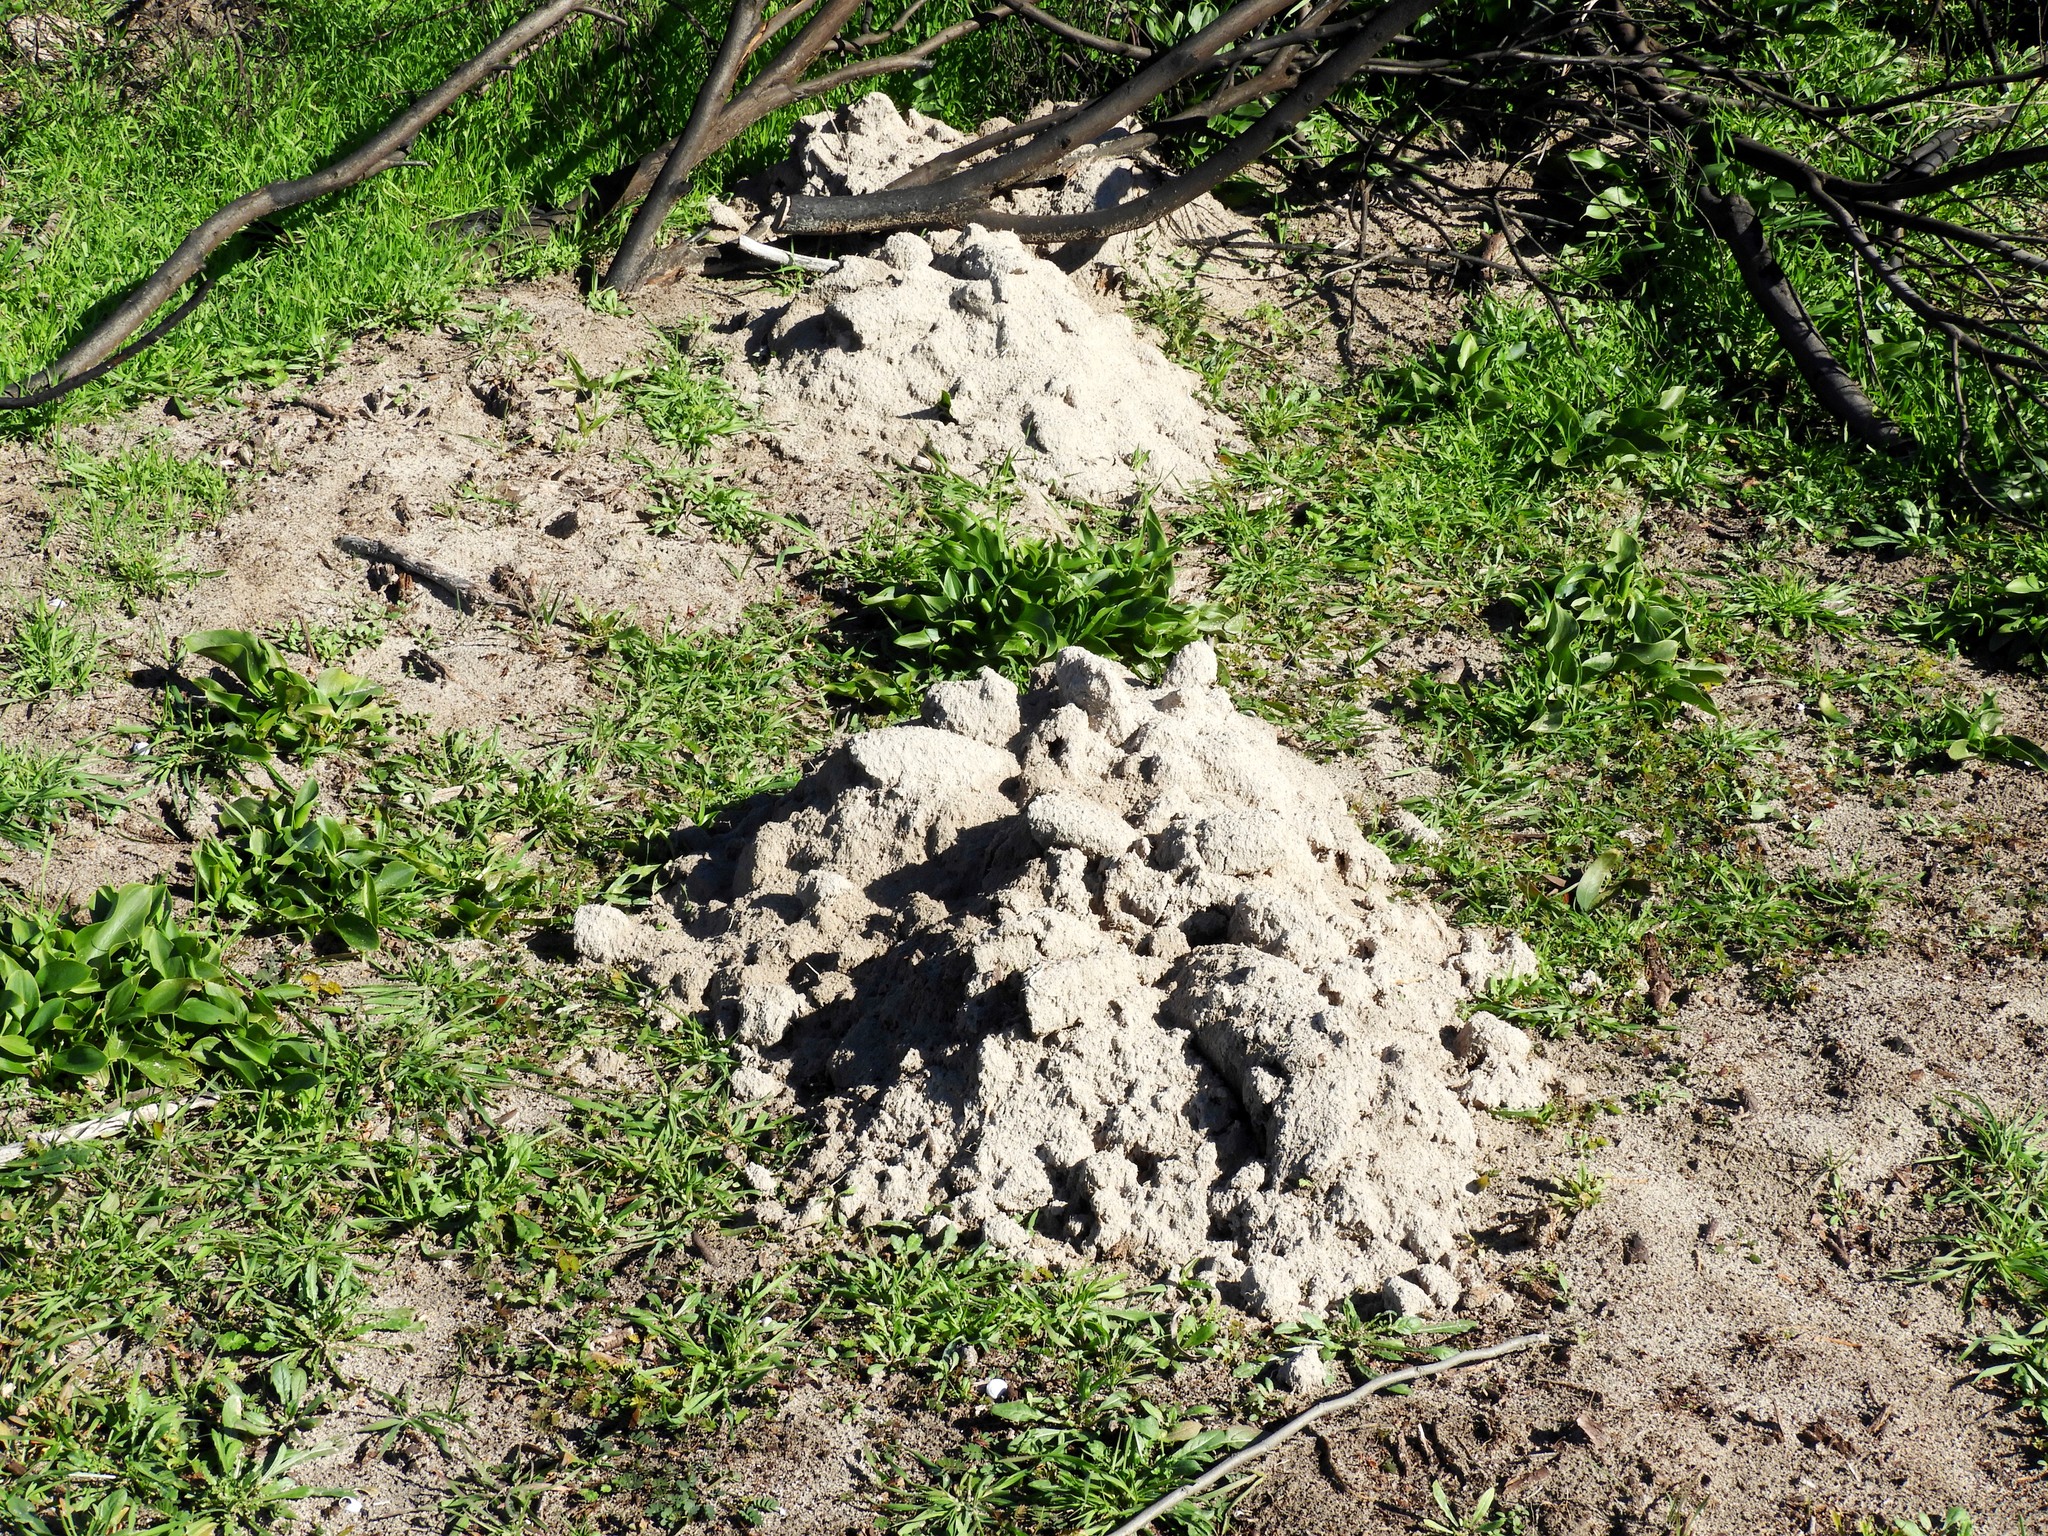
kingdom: Animalia
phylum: Chordata
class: Mammalia
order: Rodentia
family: Bathyergidae
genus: Bathyergus
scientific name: Bathyergus suillus
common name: Cape dune mole rat
